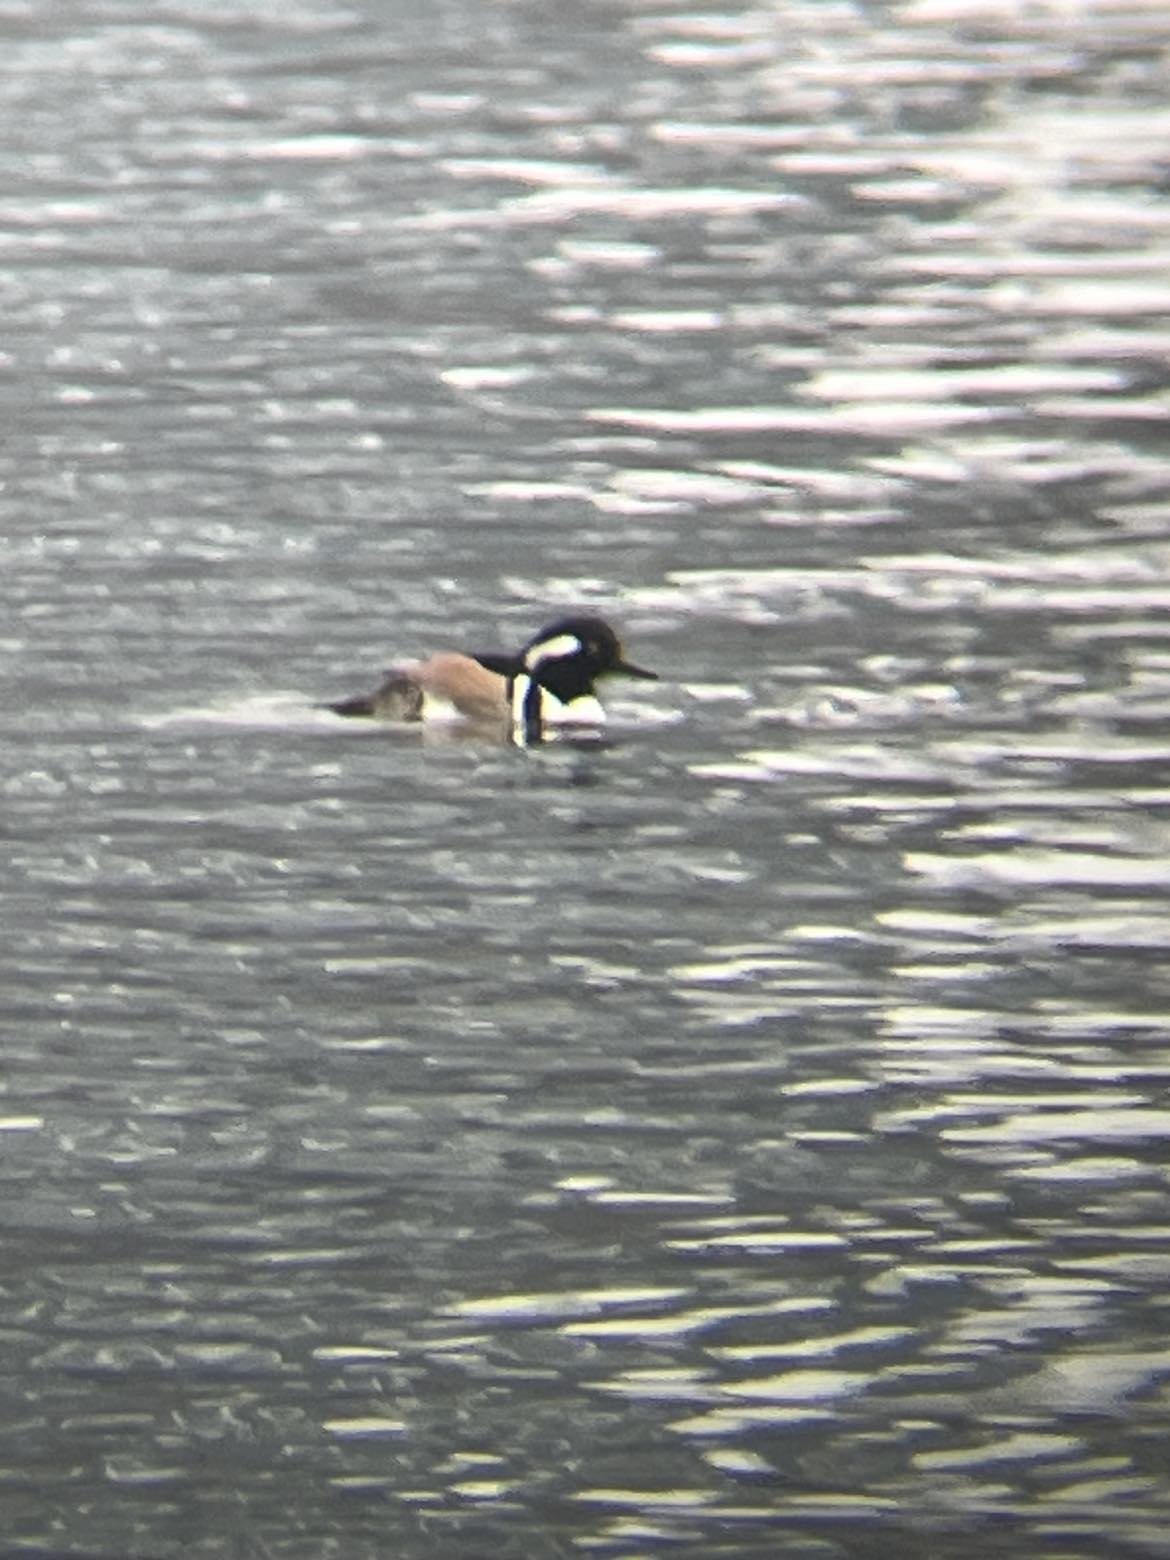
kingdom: Animalia
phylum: Chordata
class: Aves
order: Anseriformes
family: Anatidae
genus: Lophodytes
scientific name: Lophodytes cucullatus
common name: Hooded merganser
